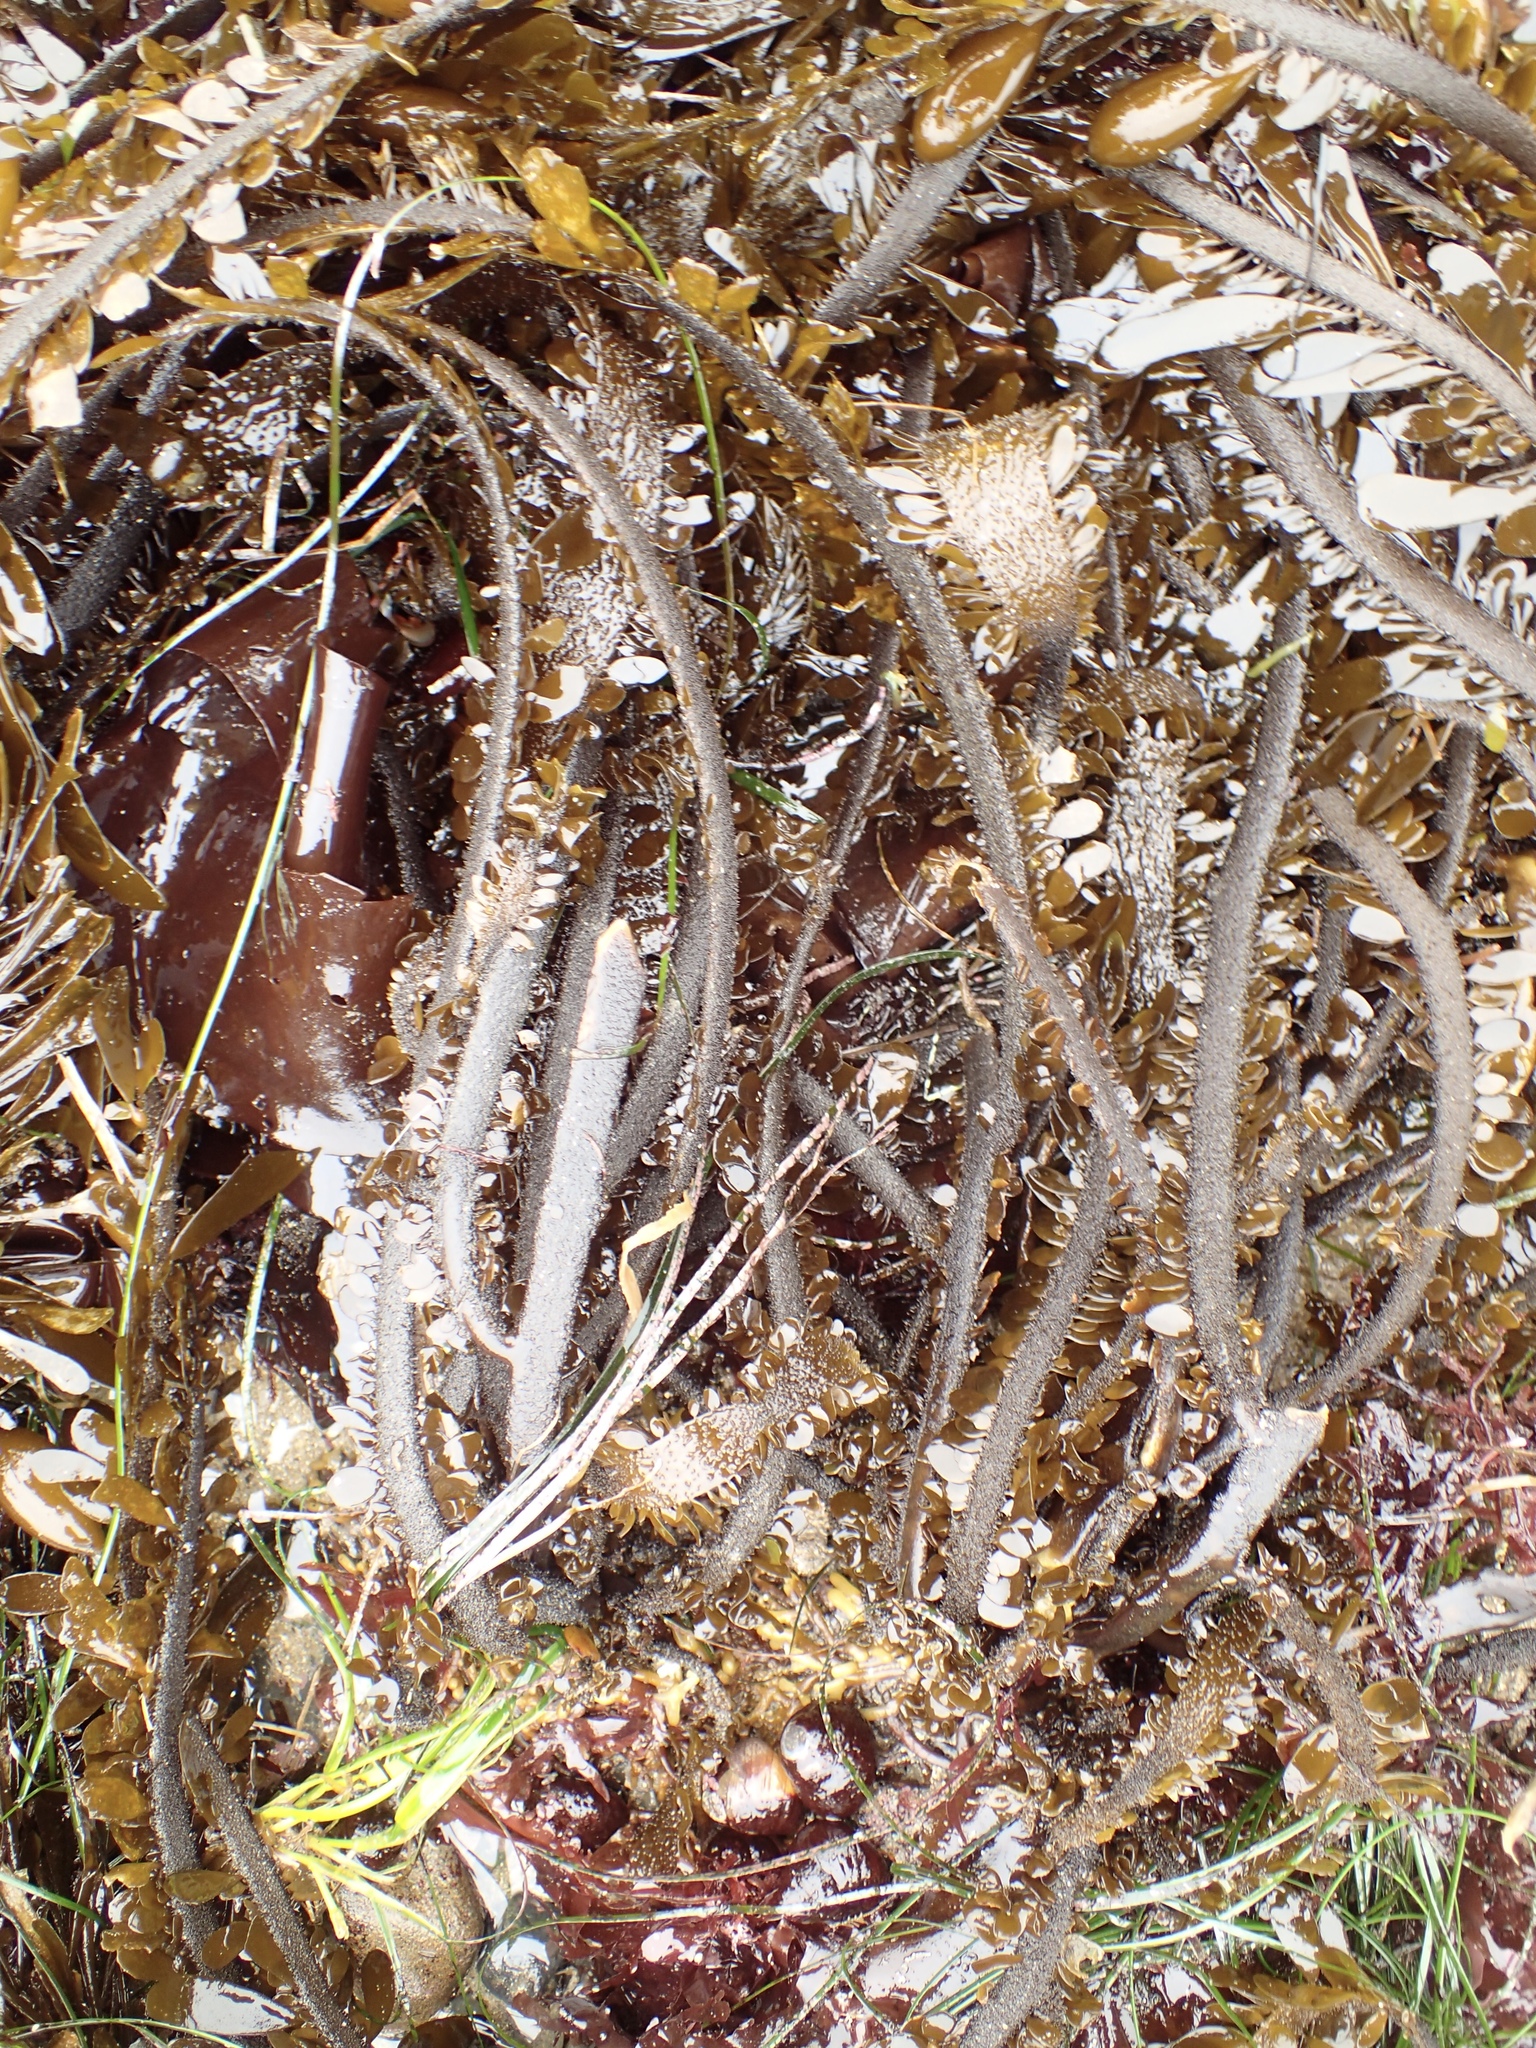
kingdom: Chromista
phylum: Ochrophyta
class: Phaeophyceae
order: Laminariales
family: Lessoniaceae
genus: Egregia
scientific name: Egregia menziesii
